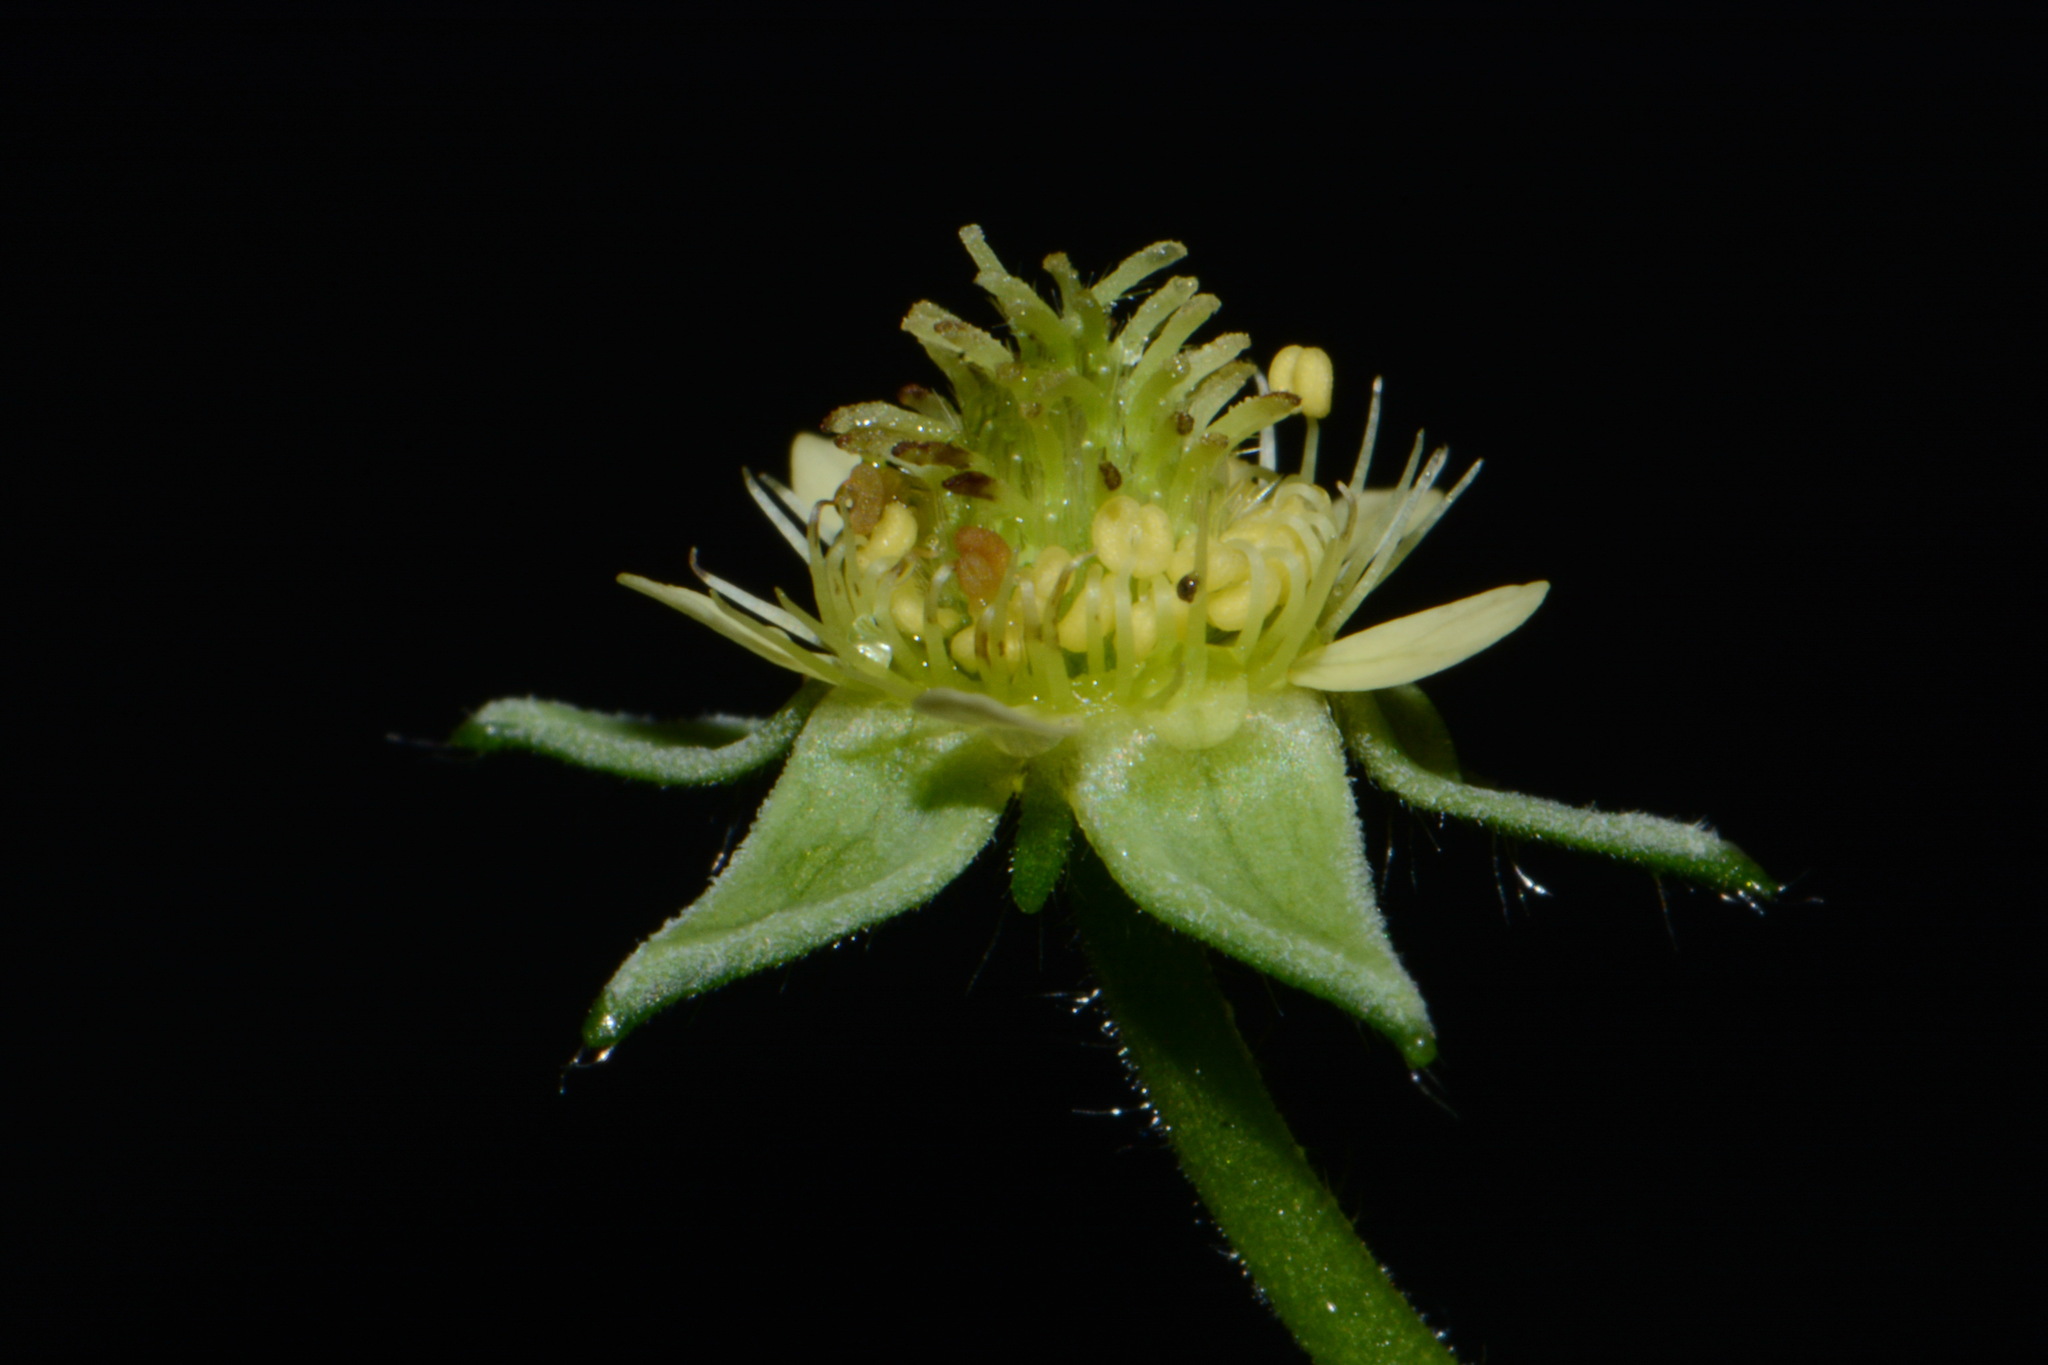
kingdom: Plantae
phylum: Tracheophyta
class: Magnoliopsida
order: Rosales
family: Rosaceae
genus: Geum
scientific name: Geum virginianum
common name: Cream avens
